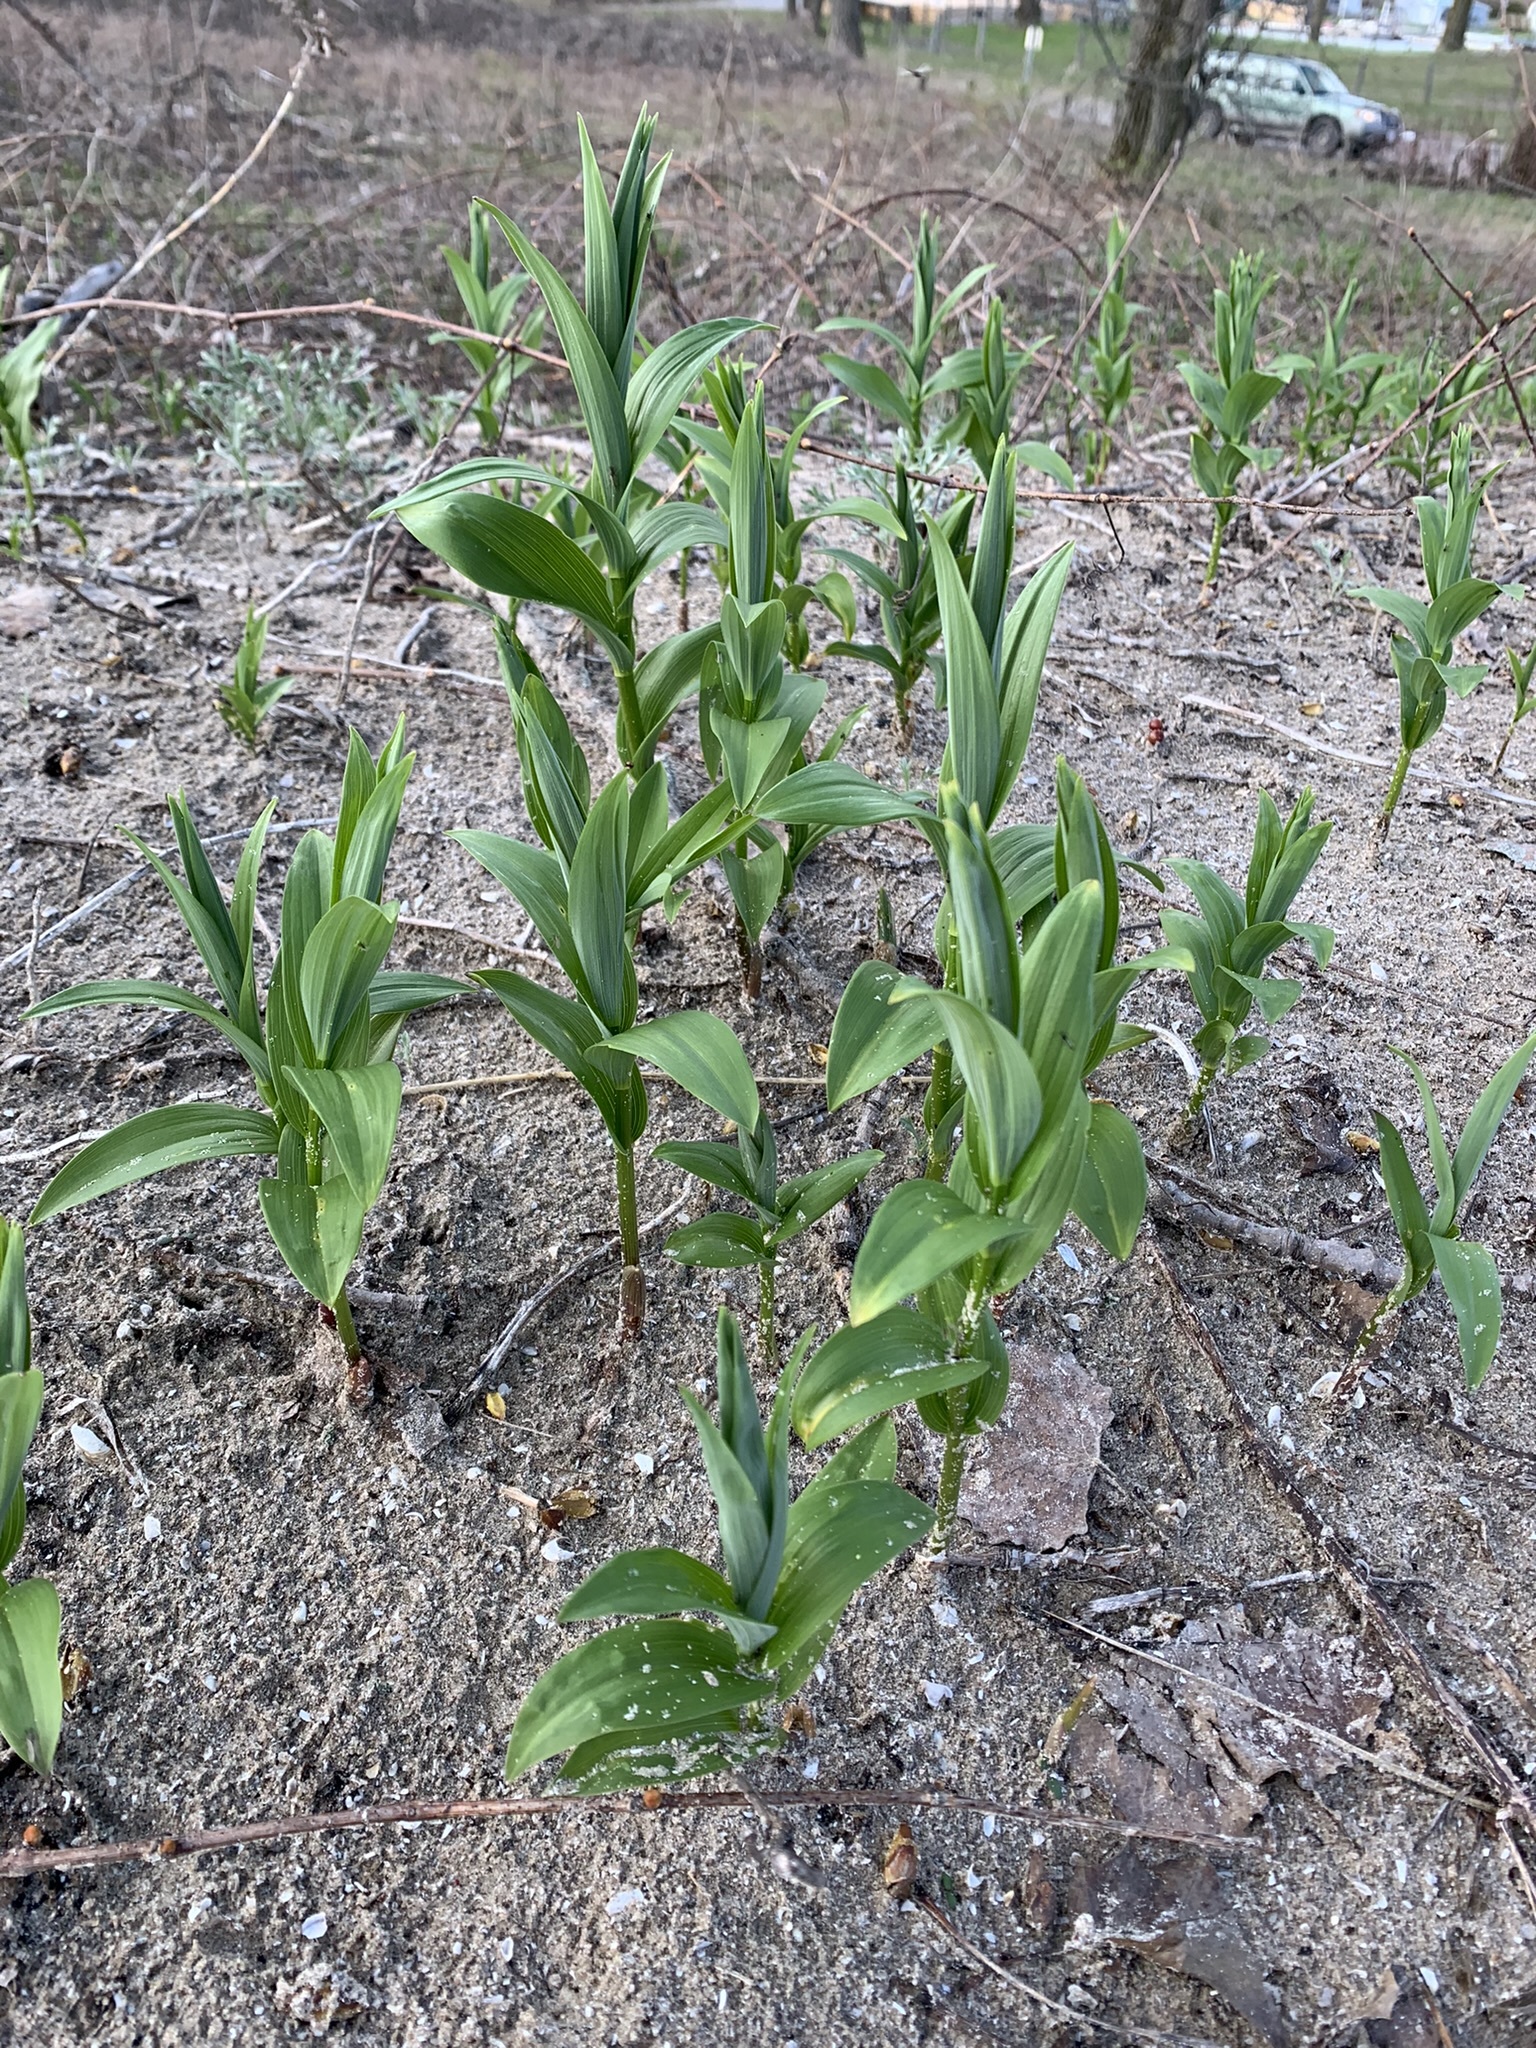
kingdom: Plantae
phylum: Tracheophyta
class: Liliopsida
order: Asparagales
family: Asparagaceae
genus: Maianthemum
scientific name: Maianthemum stellatum
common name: Little false solomon's seal
